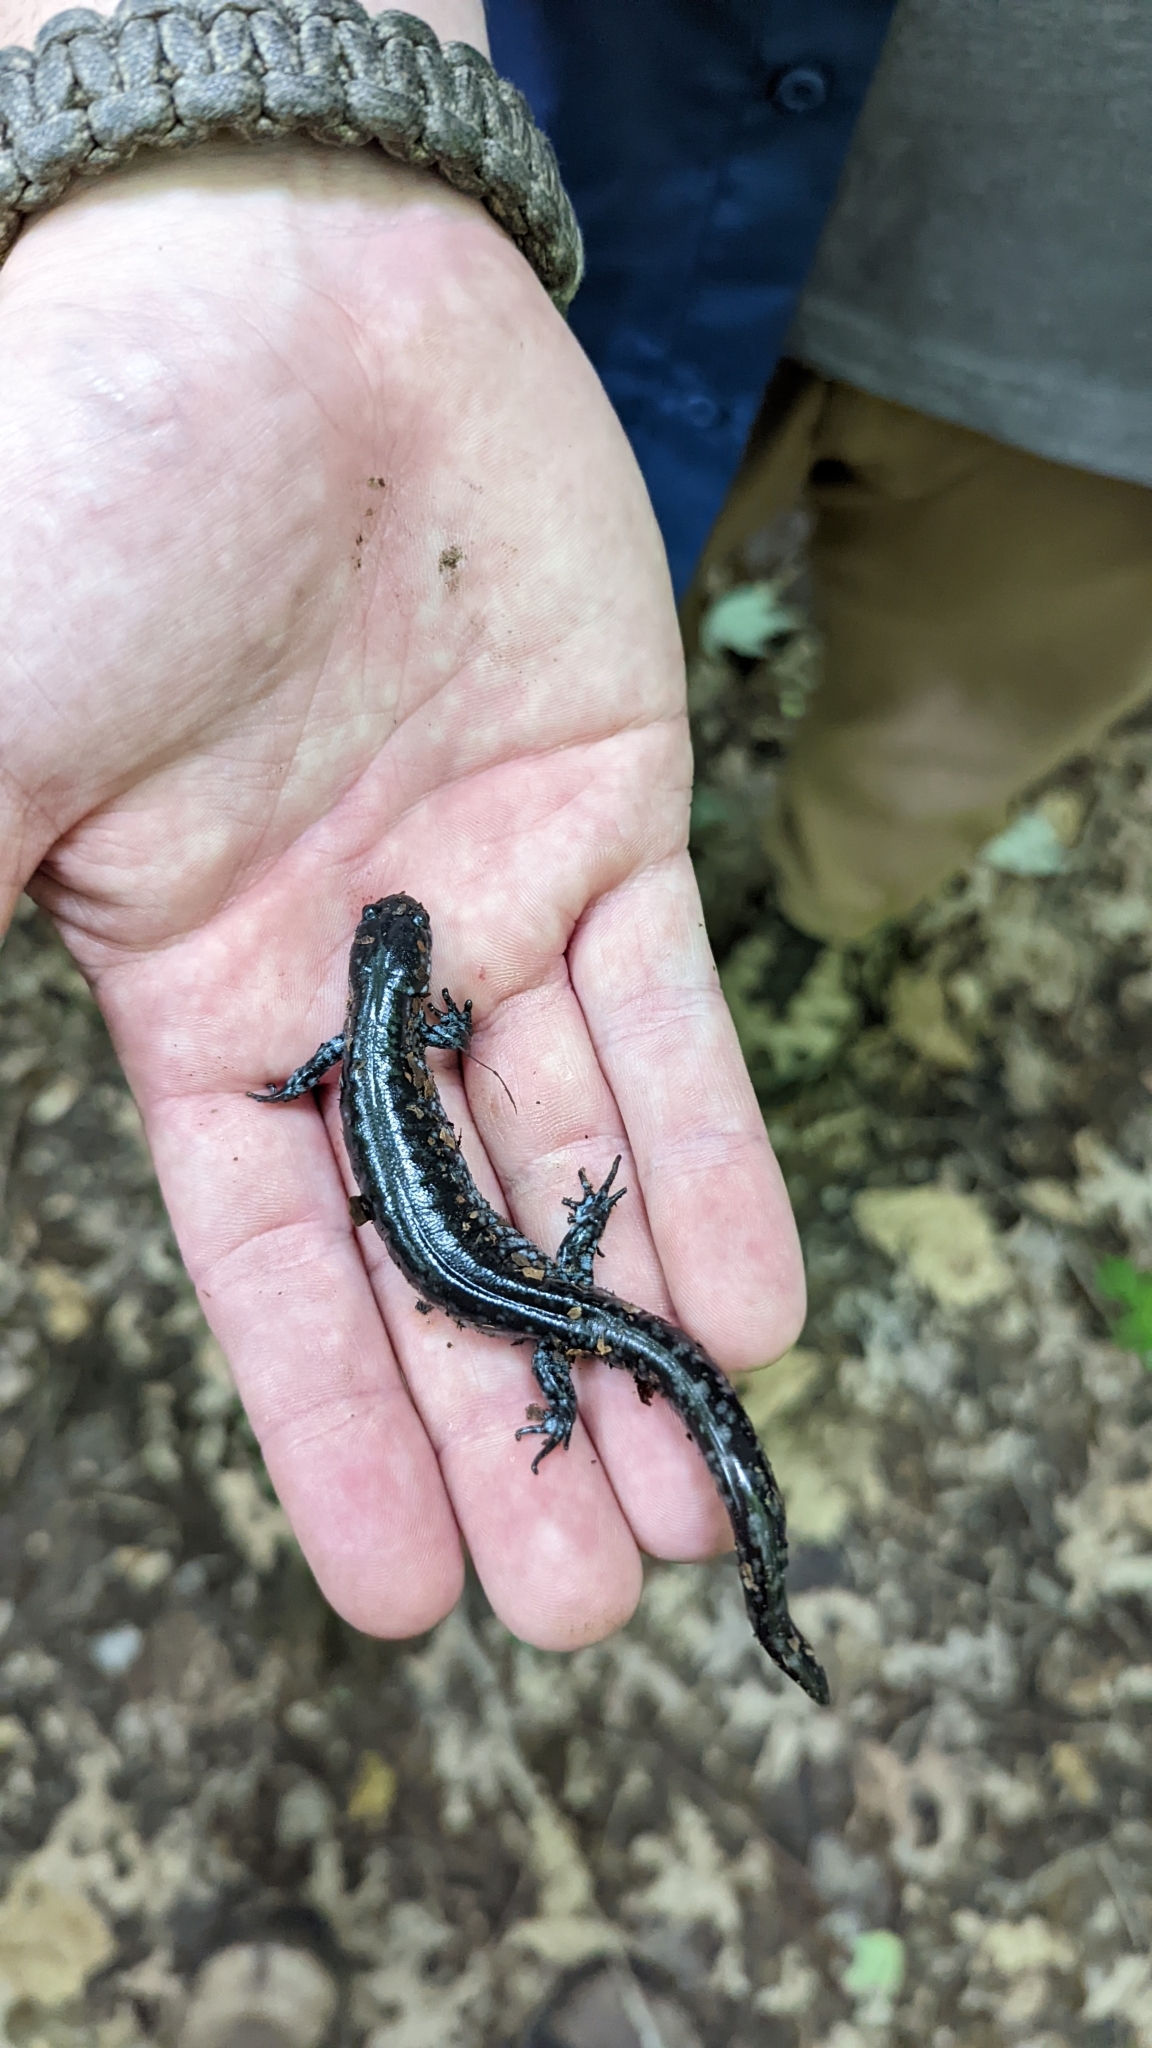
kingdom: Animalia
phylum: Chordata
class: Amphibia
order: Caudata
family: Ambystomatidae
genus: Ambystoma
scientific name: Ambystoma unisexual
